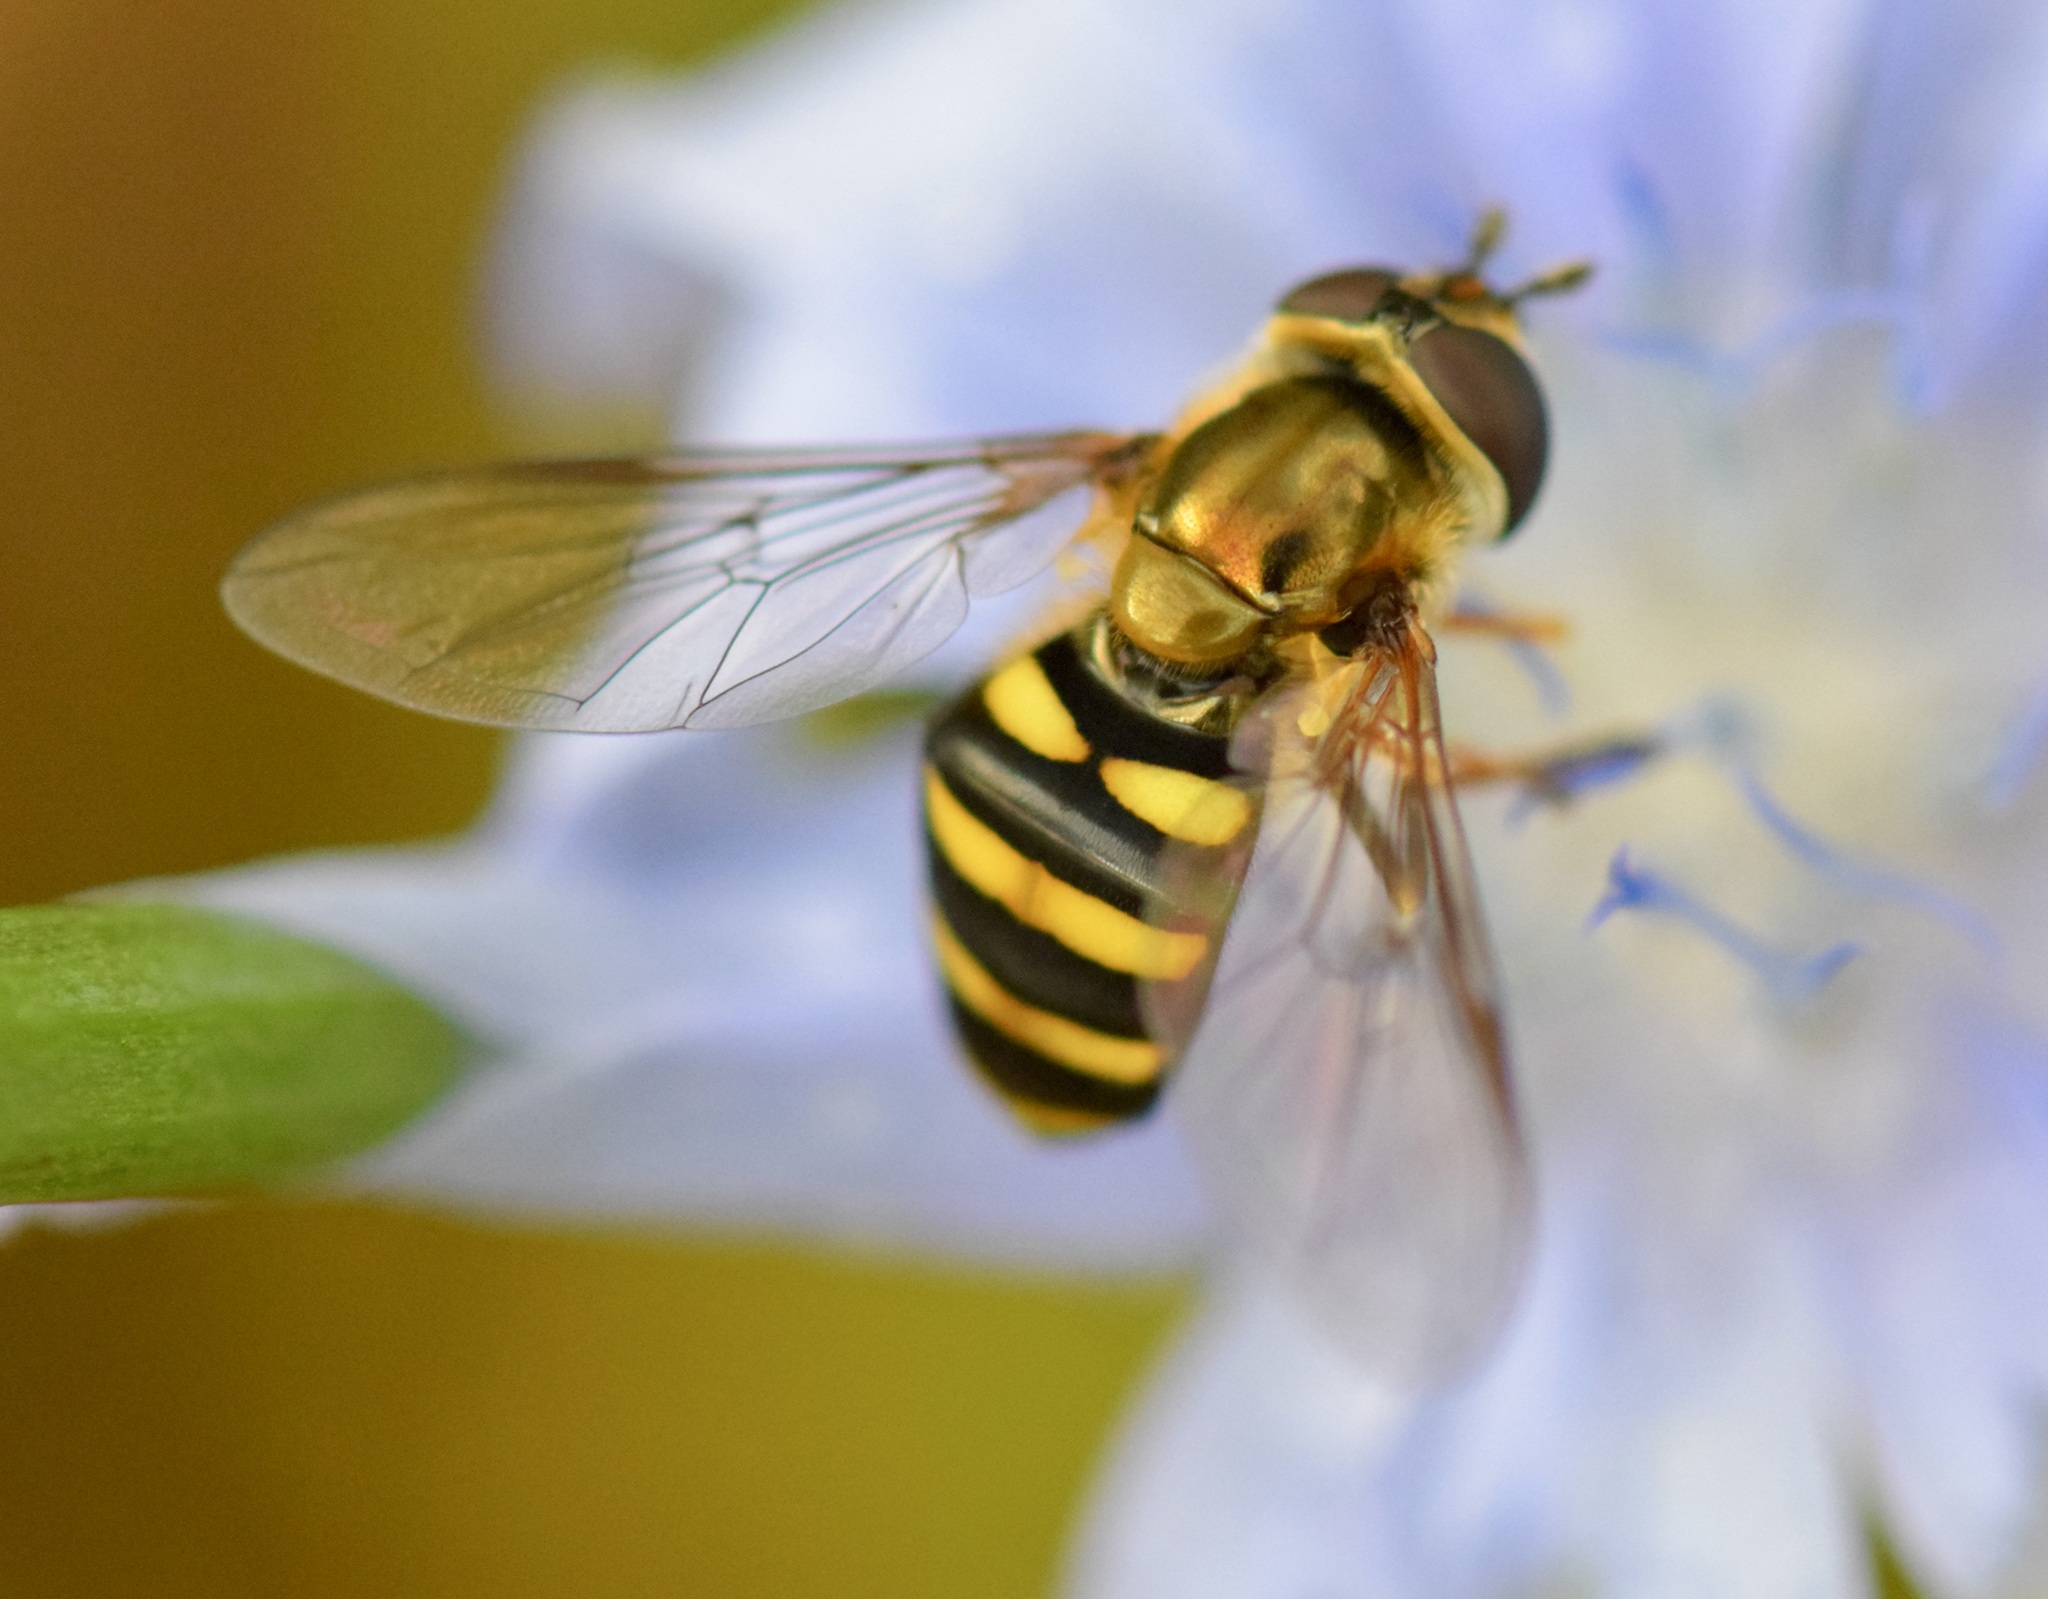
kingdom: Animalia
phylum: Arthropoda
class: Insecta
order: Diptera
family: Syrphidae
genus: Eupeodes
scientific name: Eupeodes
